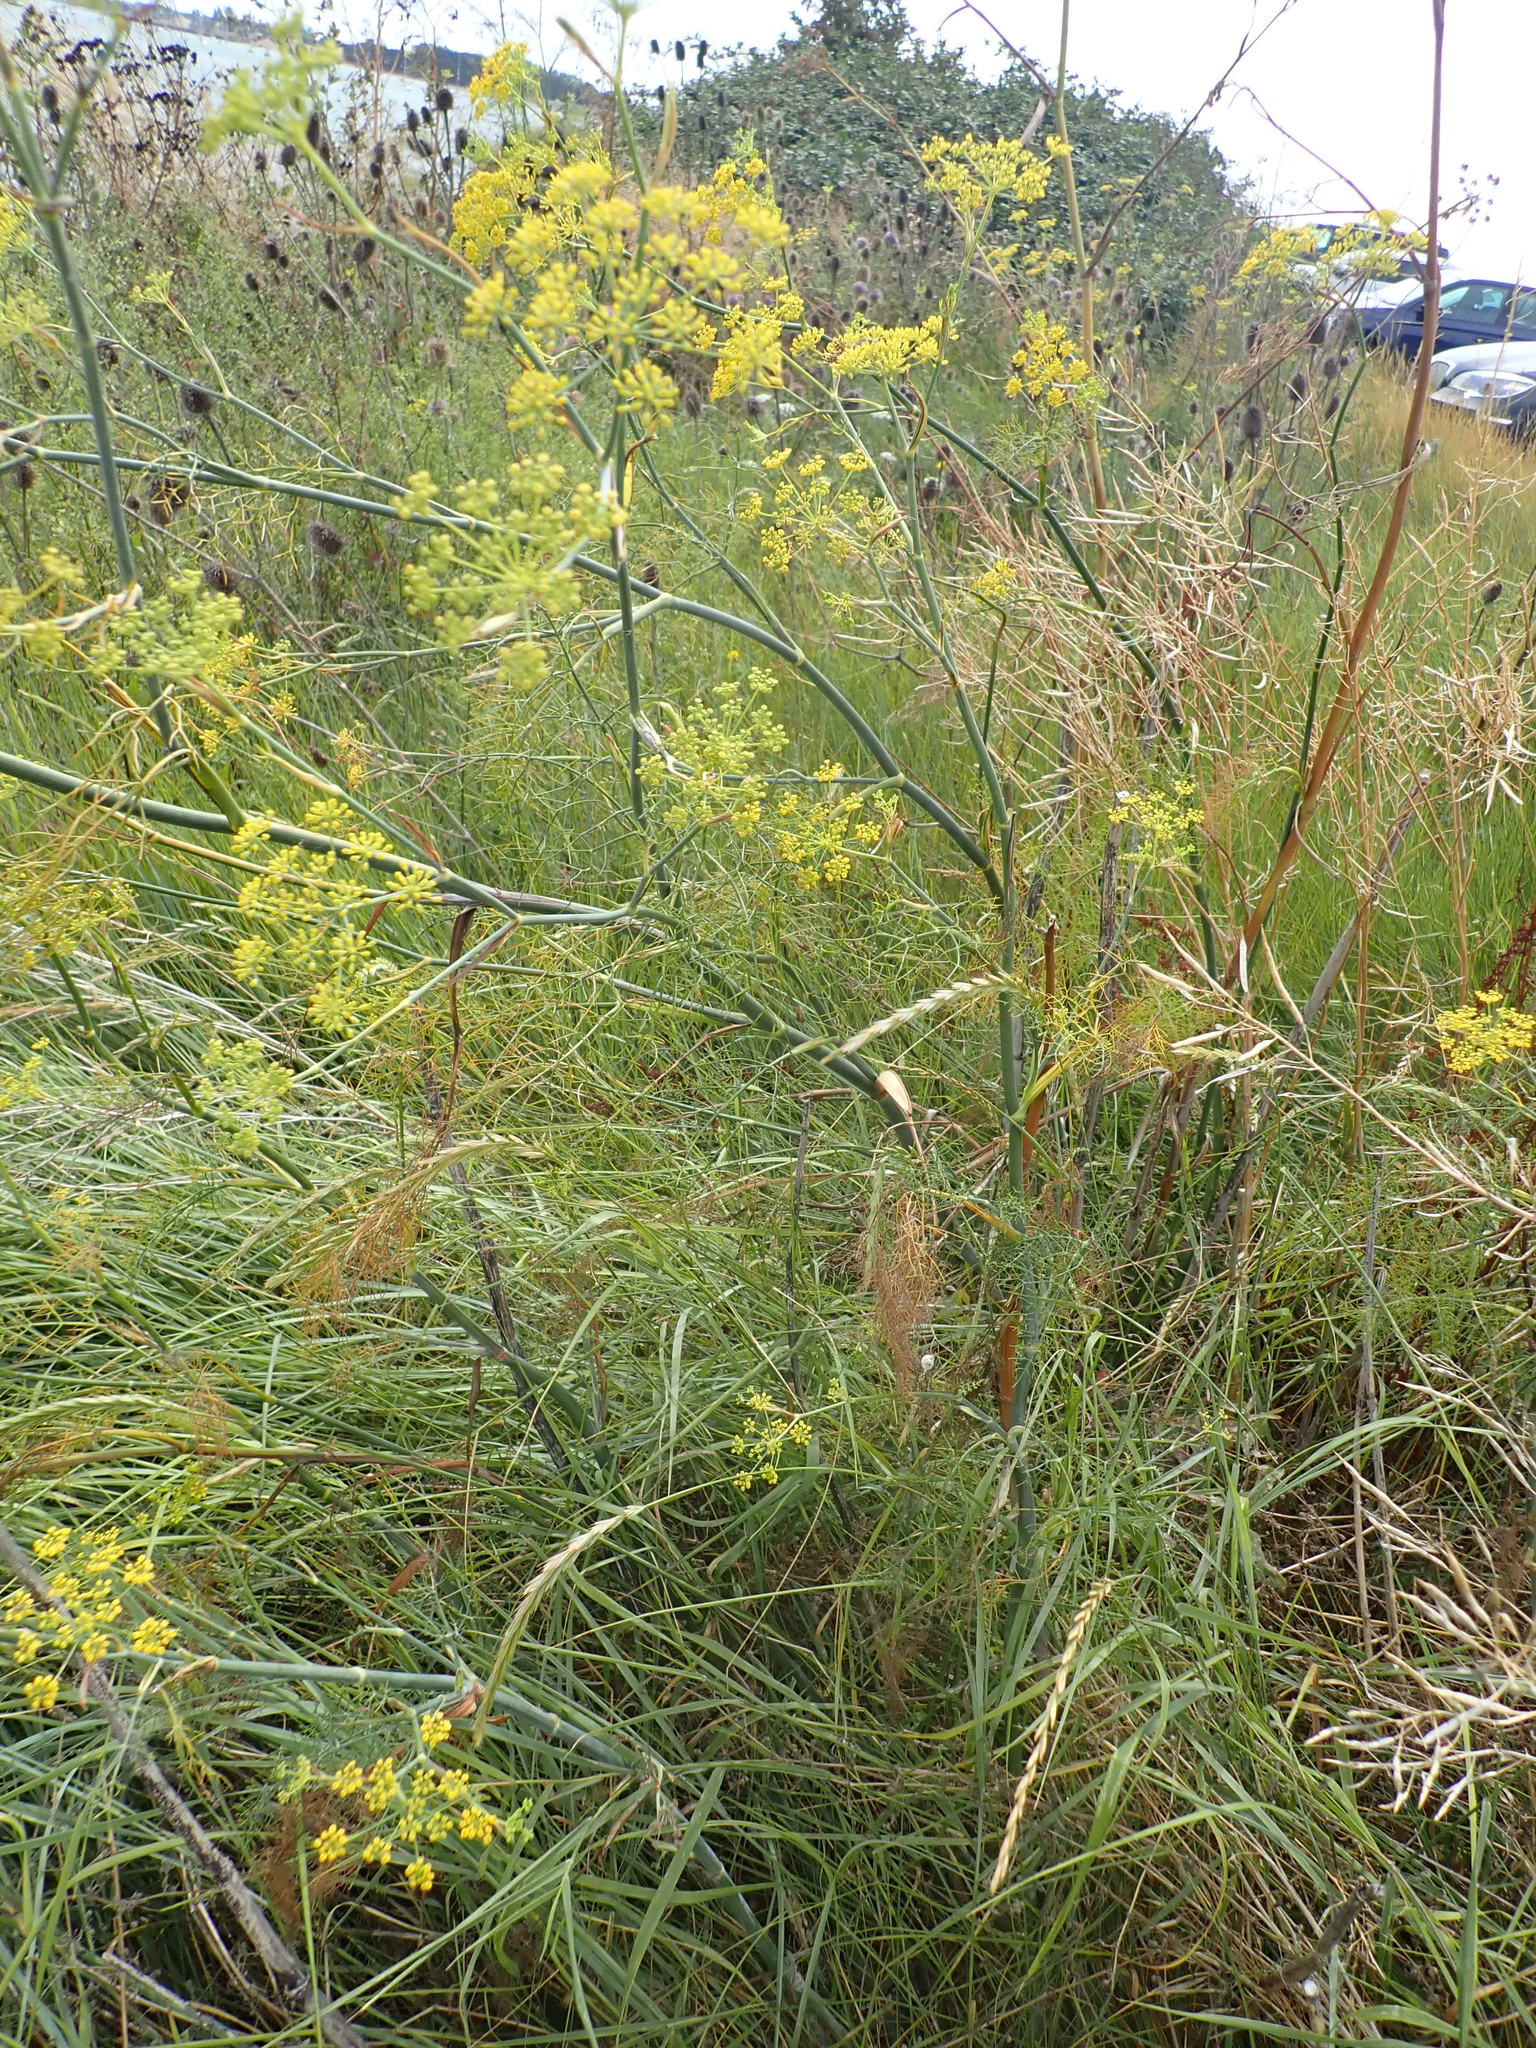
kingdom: Plantae
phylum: Tracheophyta
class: Magnoliopsida
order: Apiales
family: Apiaceae
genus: Foeniculum
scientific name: Foeniculum vulgare
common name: Fennel
